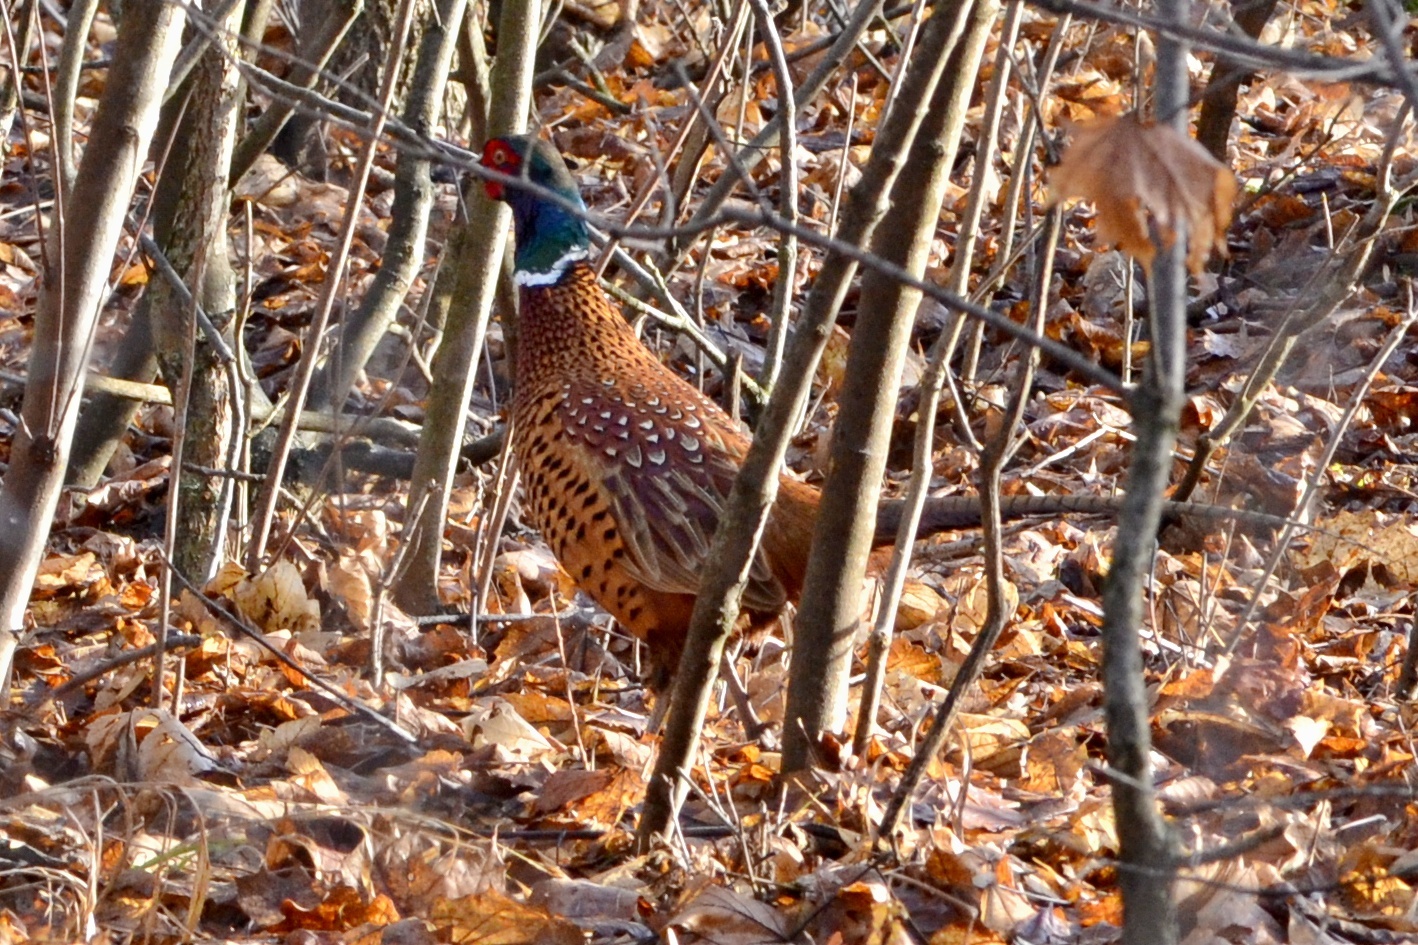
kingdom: Animalia
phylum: Chordata
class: Aves
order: Galliformes
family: Phasianidae
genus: Phasianus
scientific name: Phasianus colchicus
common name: Common pheasant
